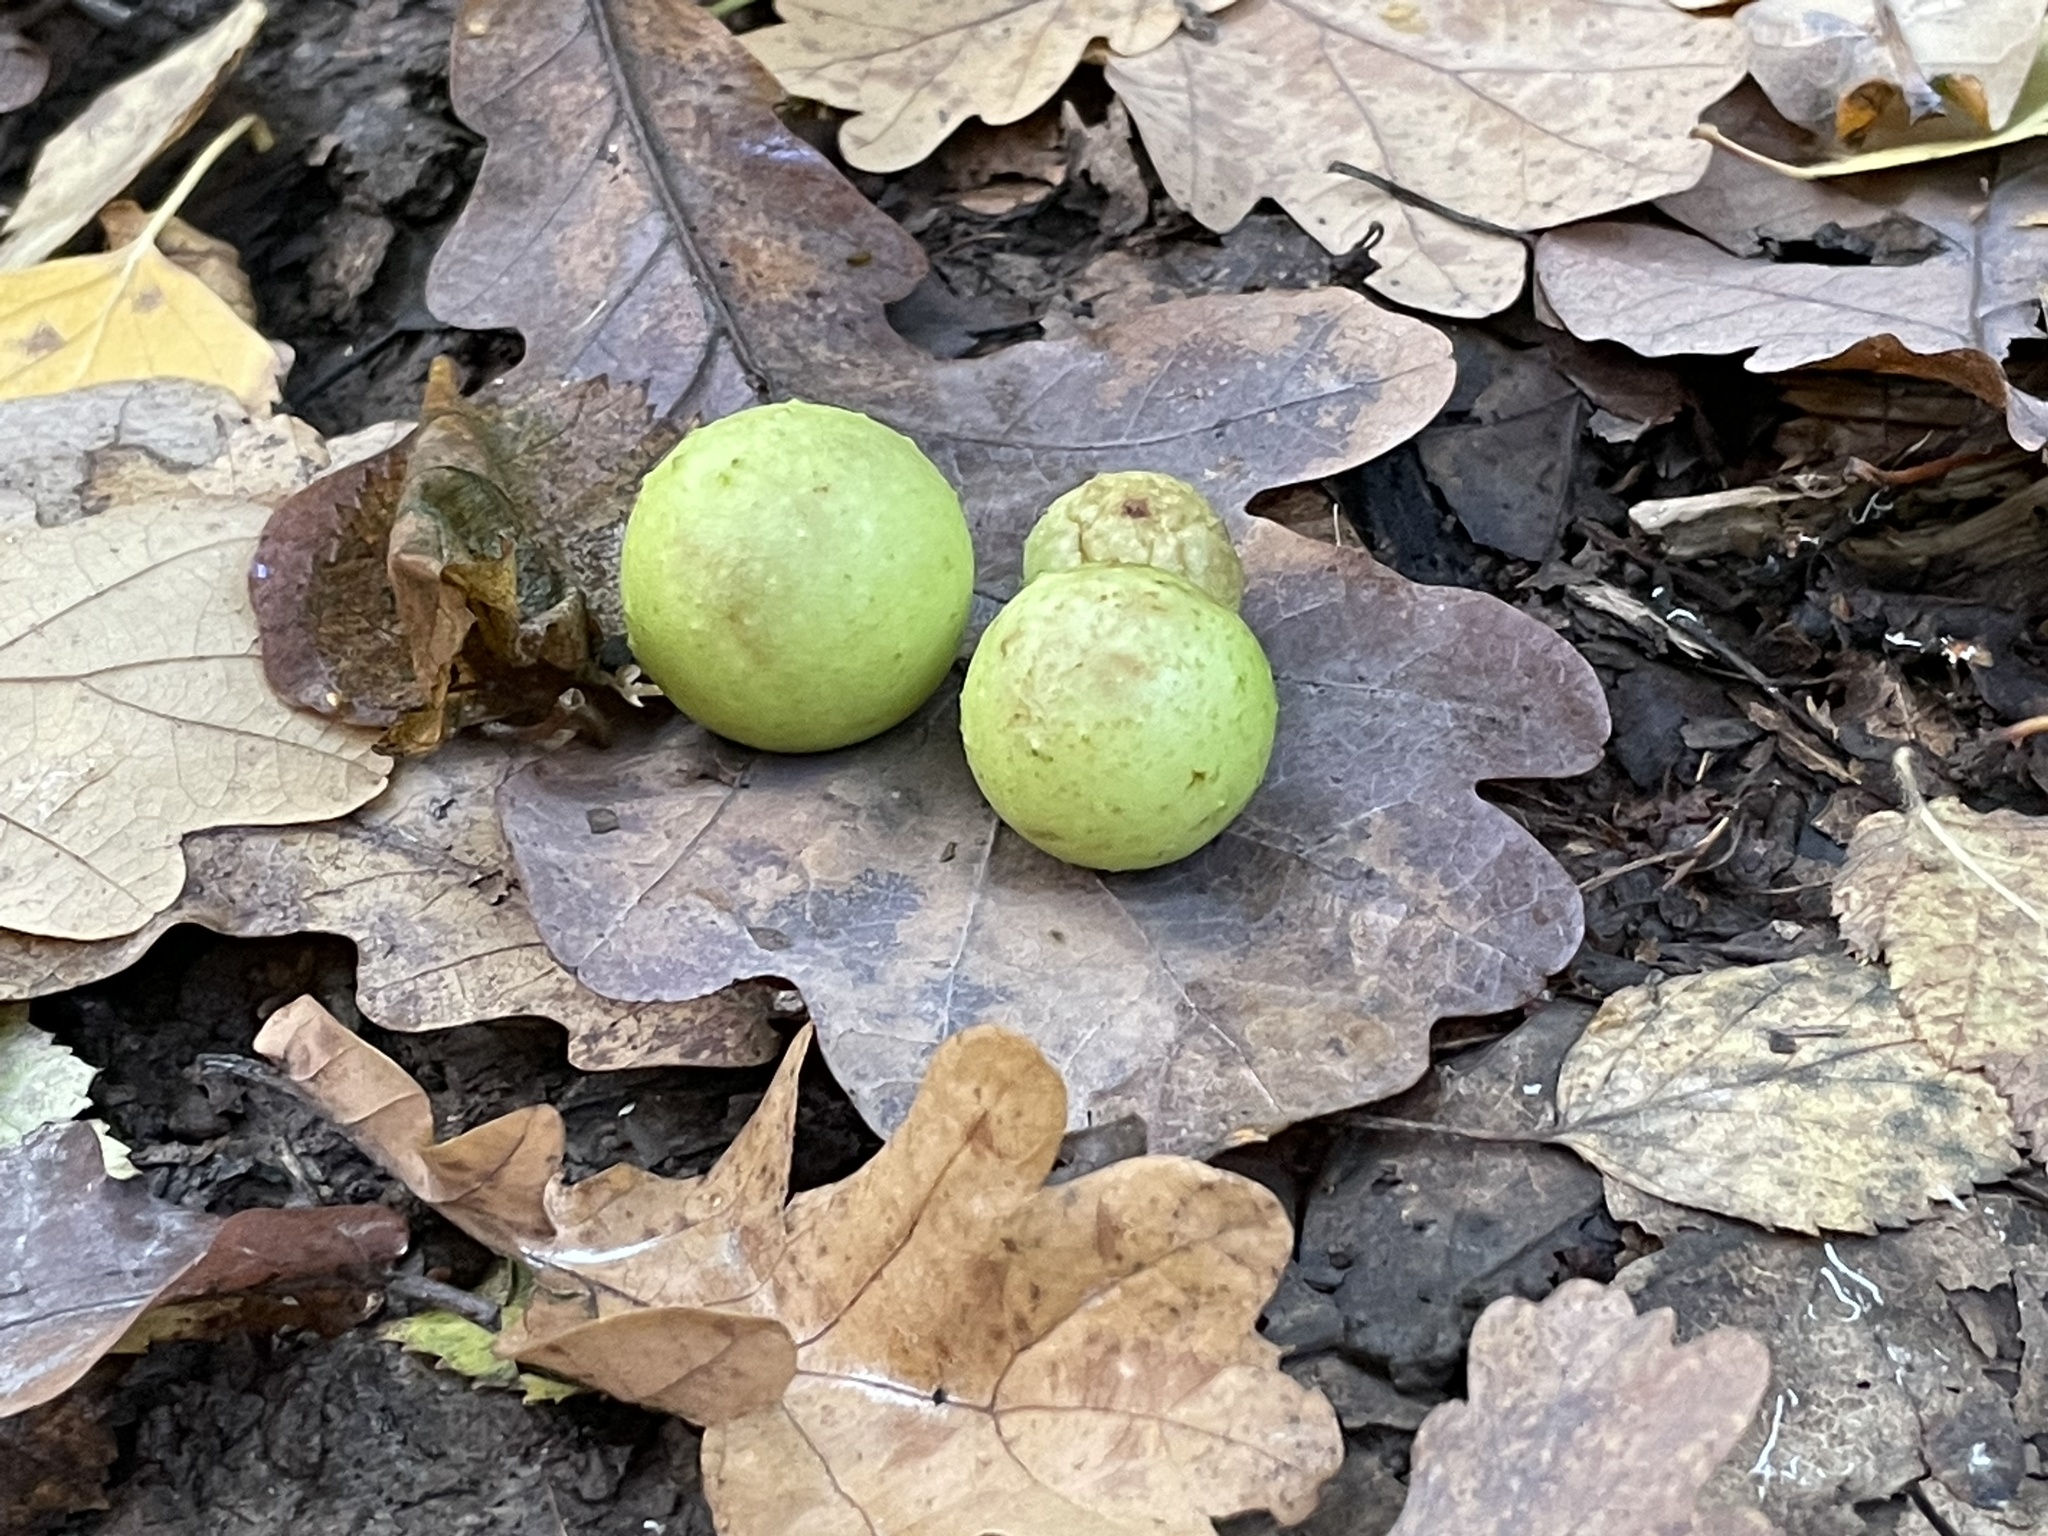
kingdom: Animalia
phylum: Arthropoda
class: Insecta
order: Hymenoptera
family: Cynipidae
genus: Cynips
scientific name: Cynips quercusfolii
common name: Cherry gall
